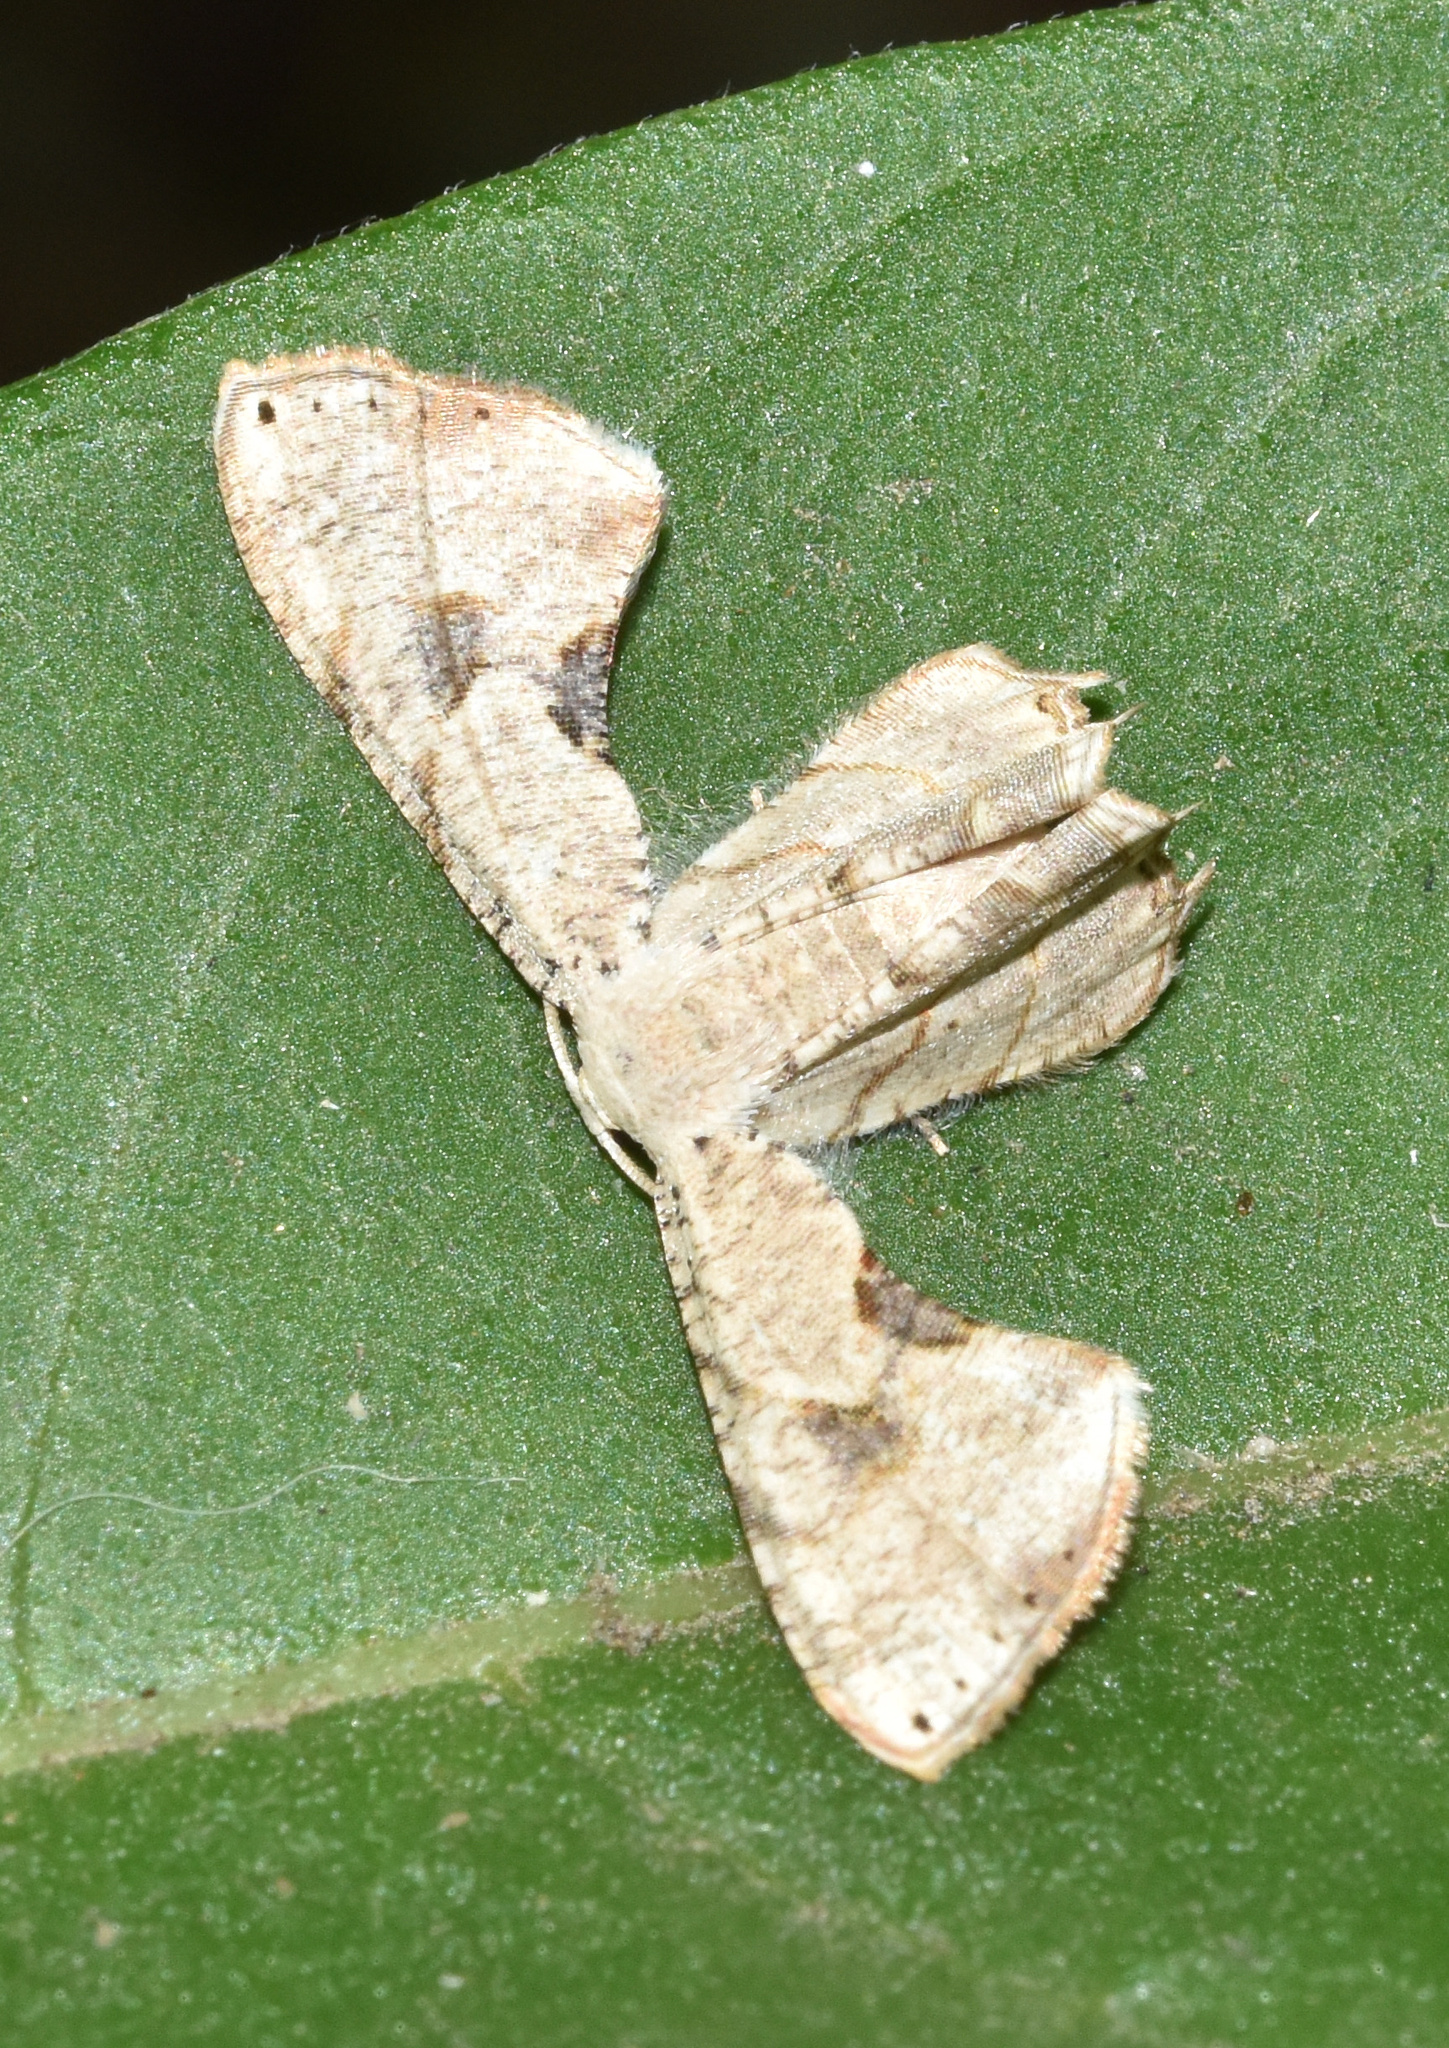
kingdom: Animalia
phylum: Arthropoda
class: Insecta
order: Lepidoptera
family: Uraniidae
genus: Epiplema
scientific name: Epiplema anomala
